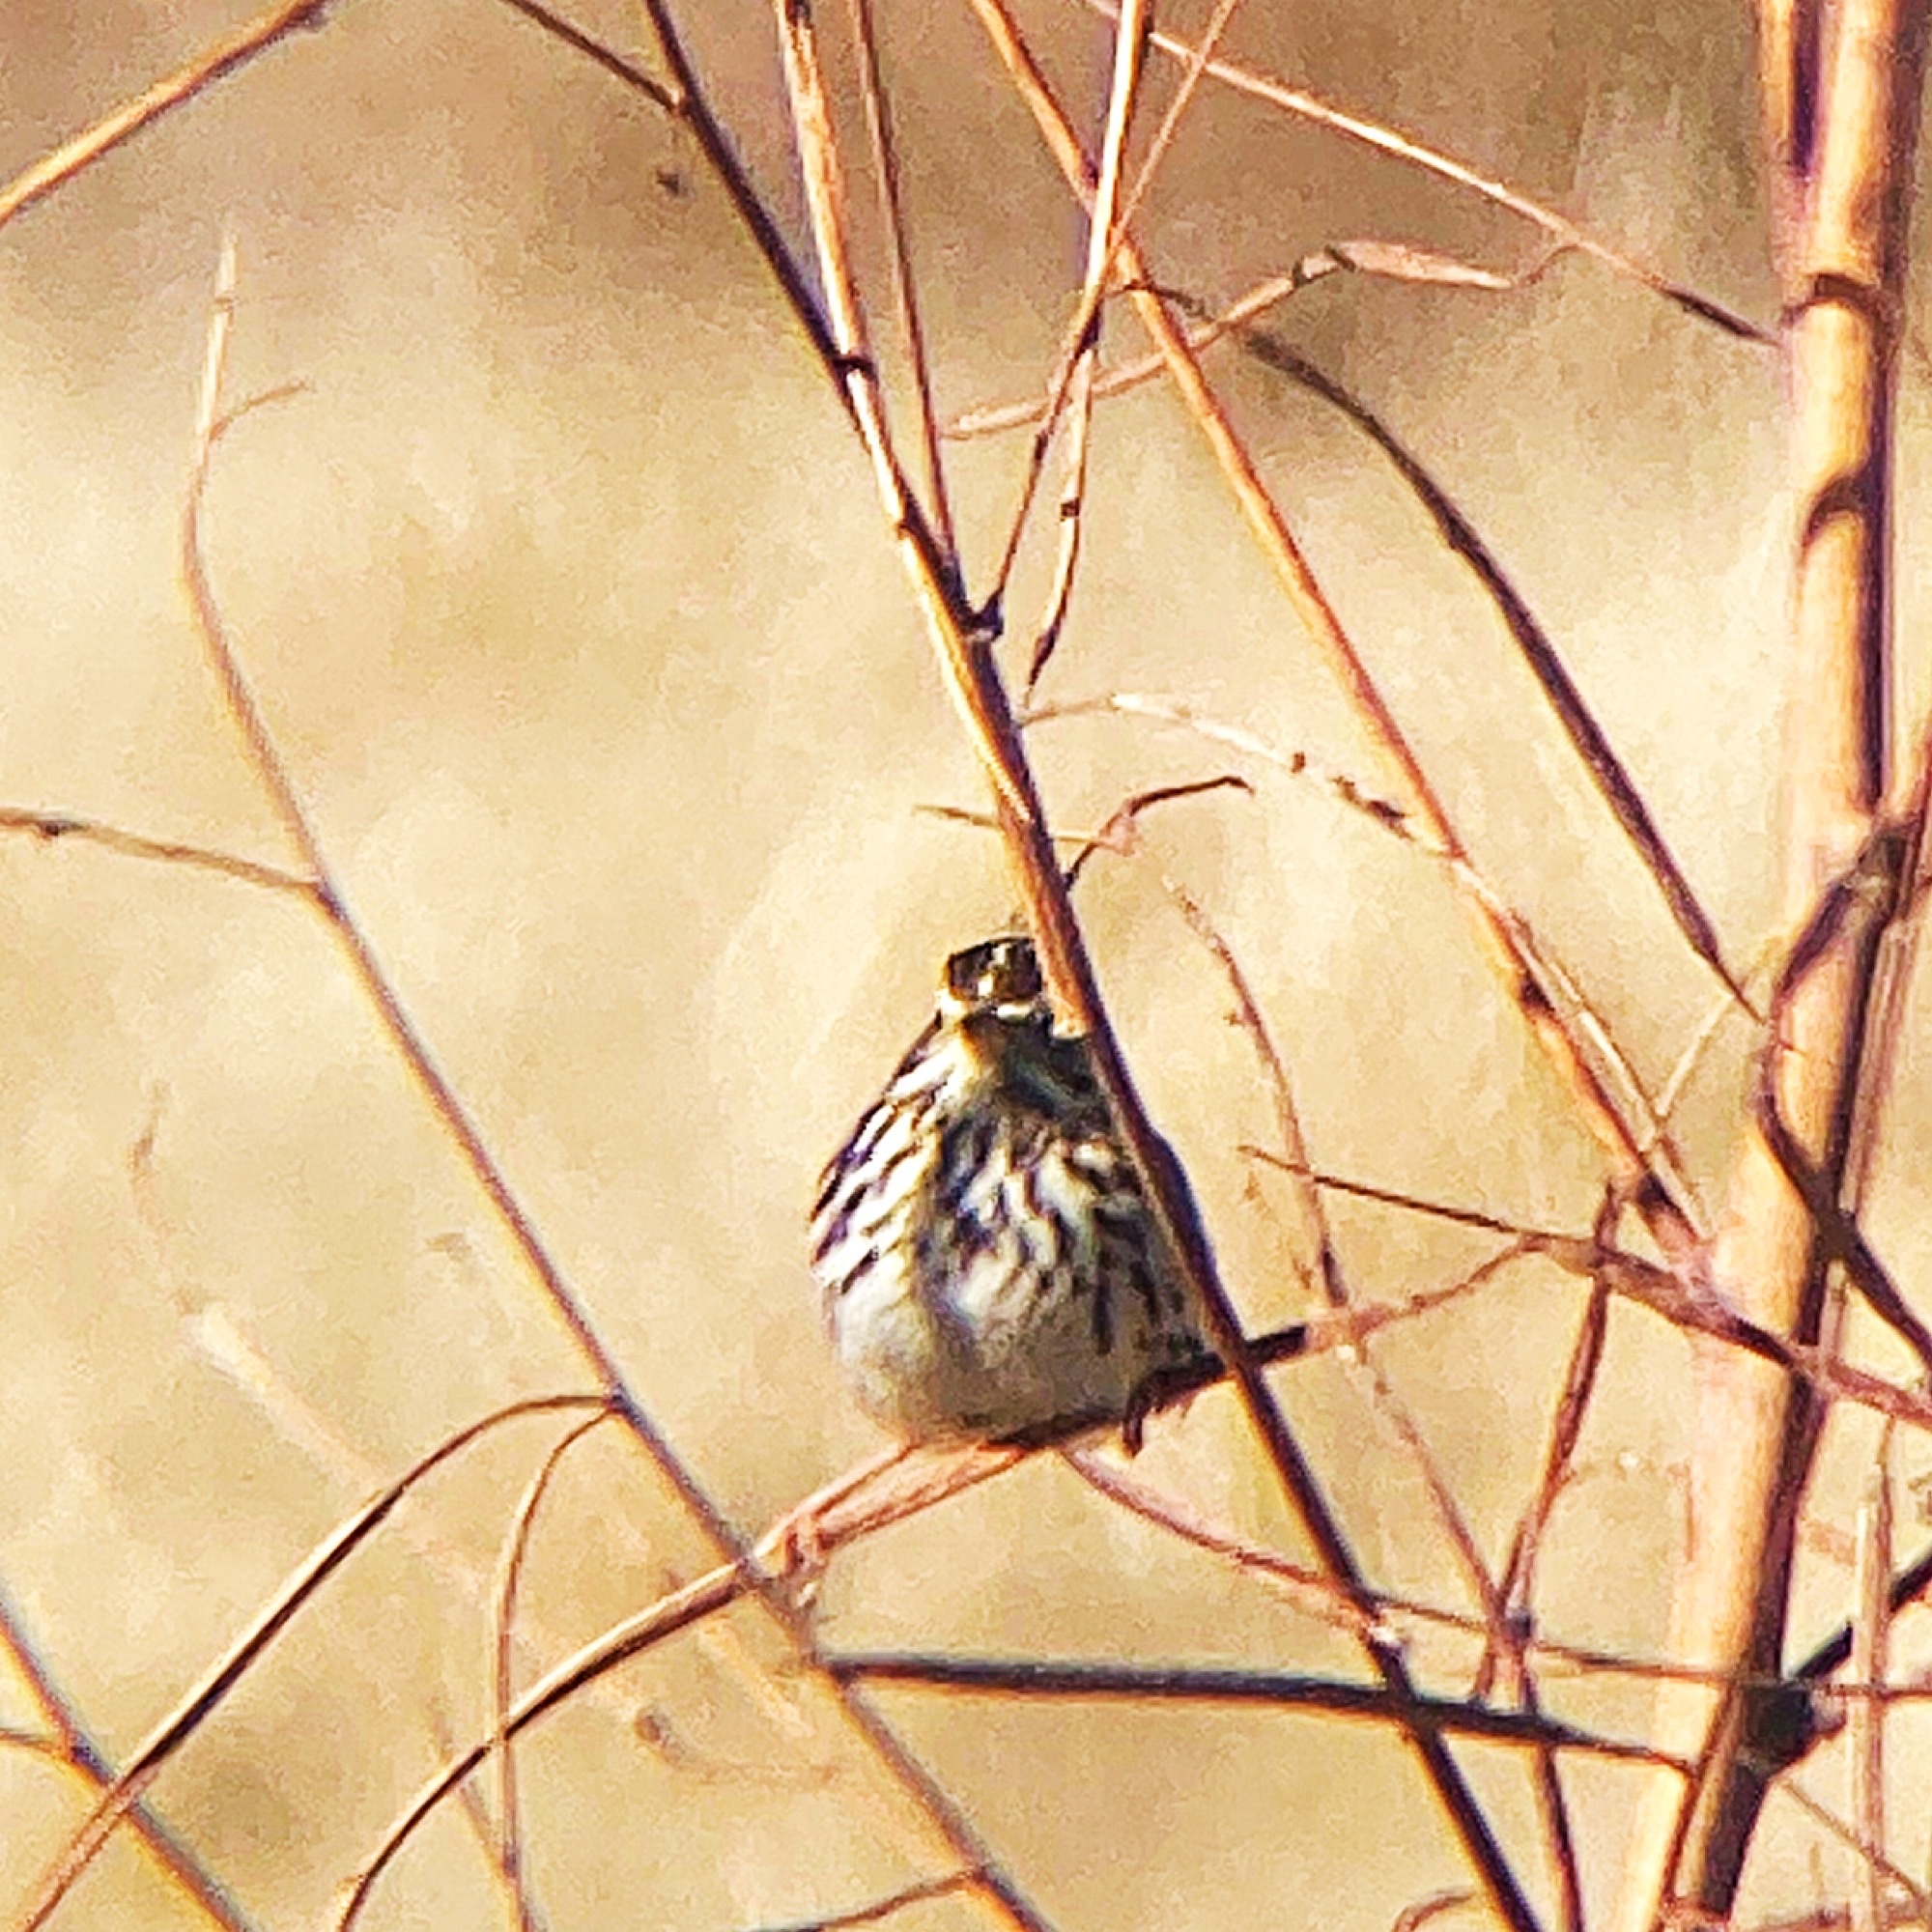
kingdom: Animalia
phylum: Chordata
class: Aves
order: Passeriformes
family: Passerellidae
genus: Passerculus
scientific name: Passerculus sandwichensis
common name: Savannah sparrow
